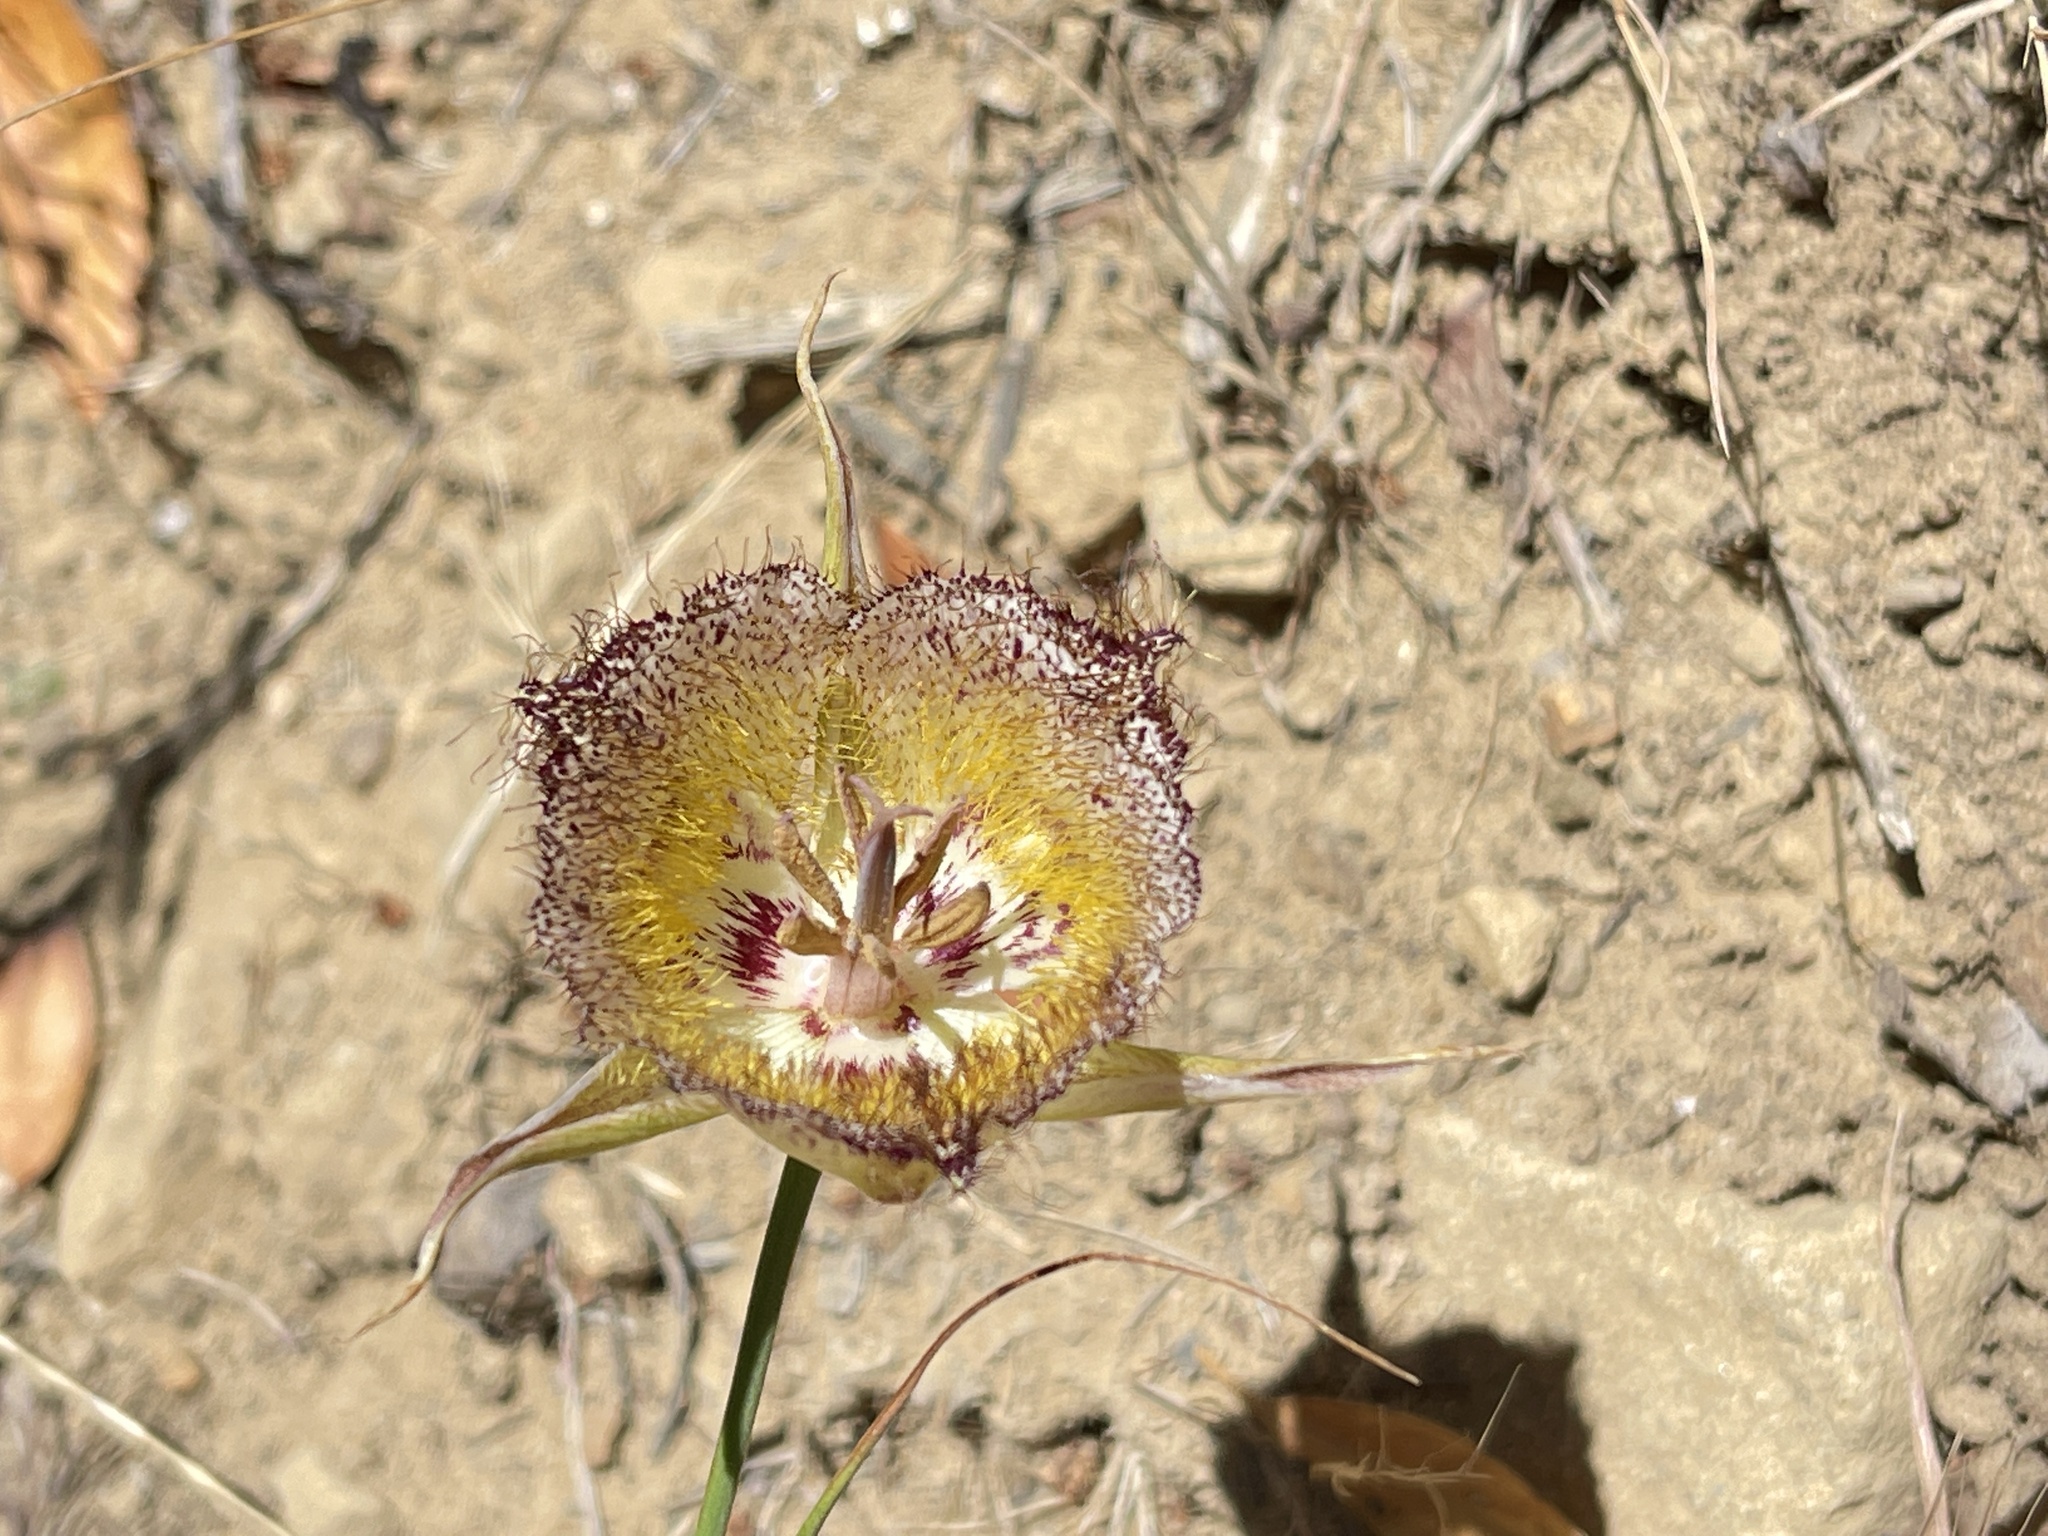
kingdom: Plantae
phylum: Tracheophyta
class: Liliopsida
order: Liliales
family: Liliaceae
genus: Calochortus
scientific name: Calochortus fimbriatus
